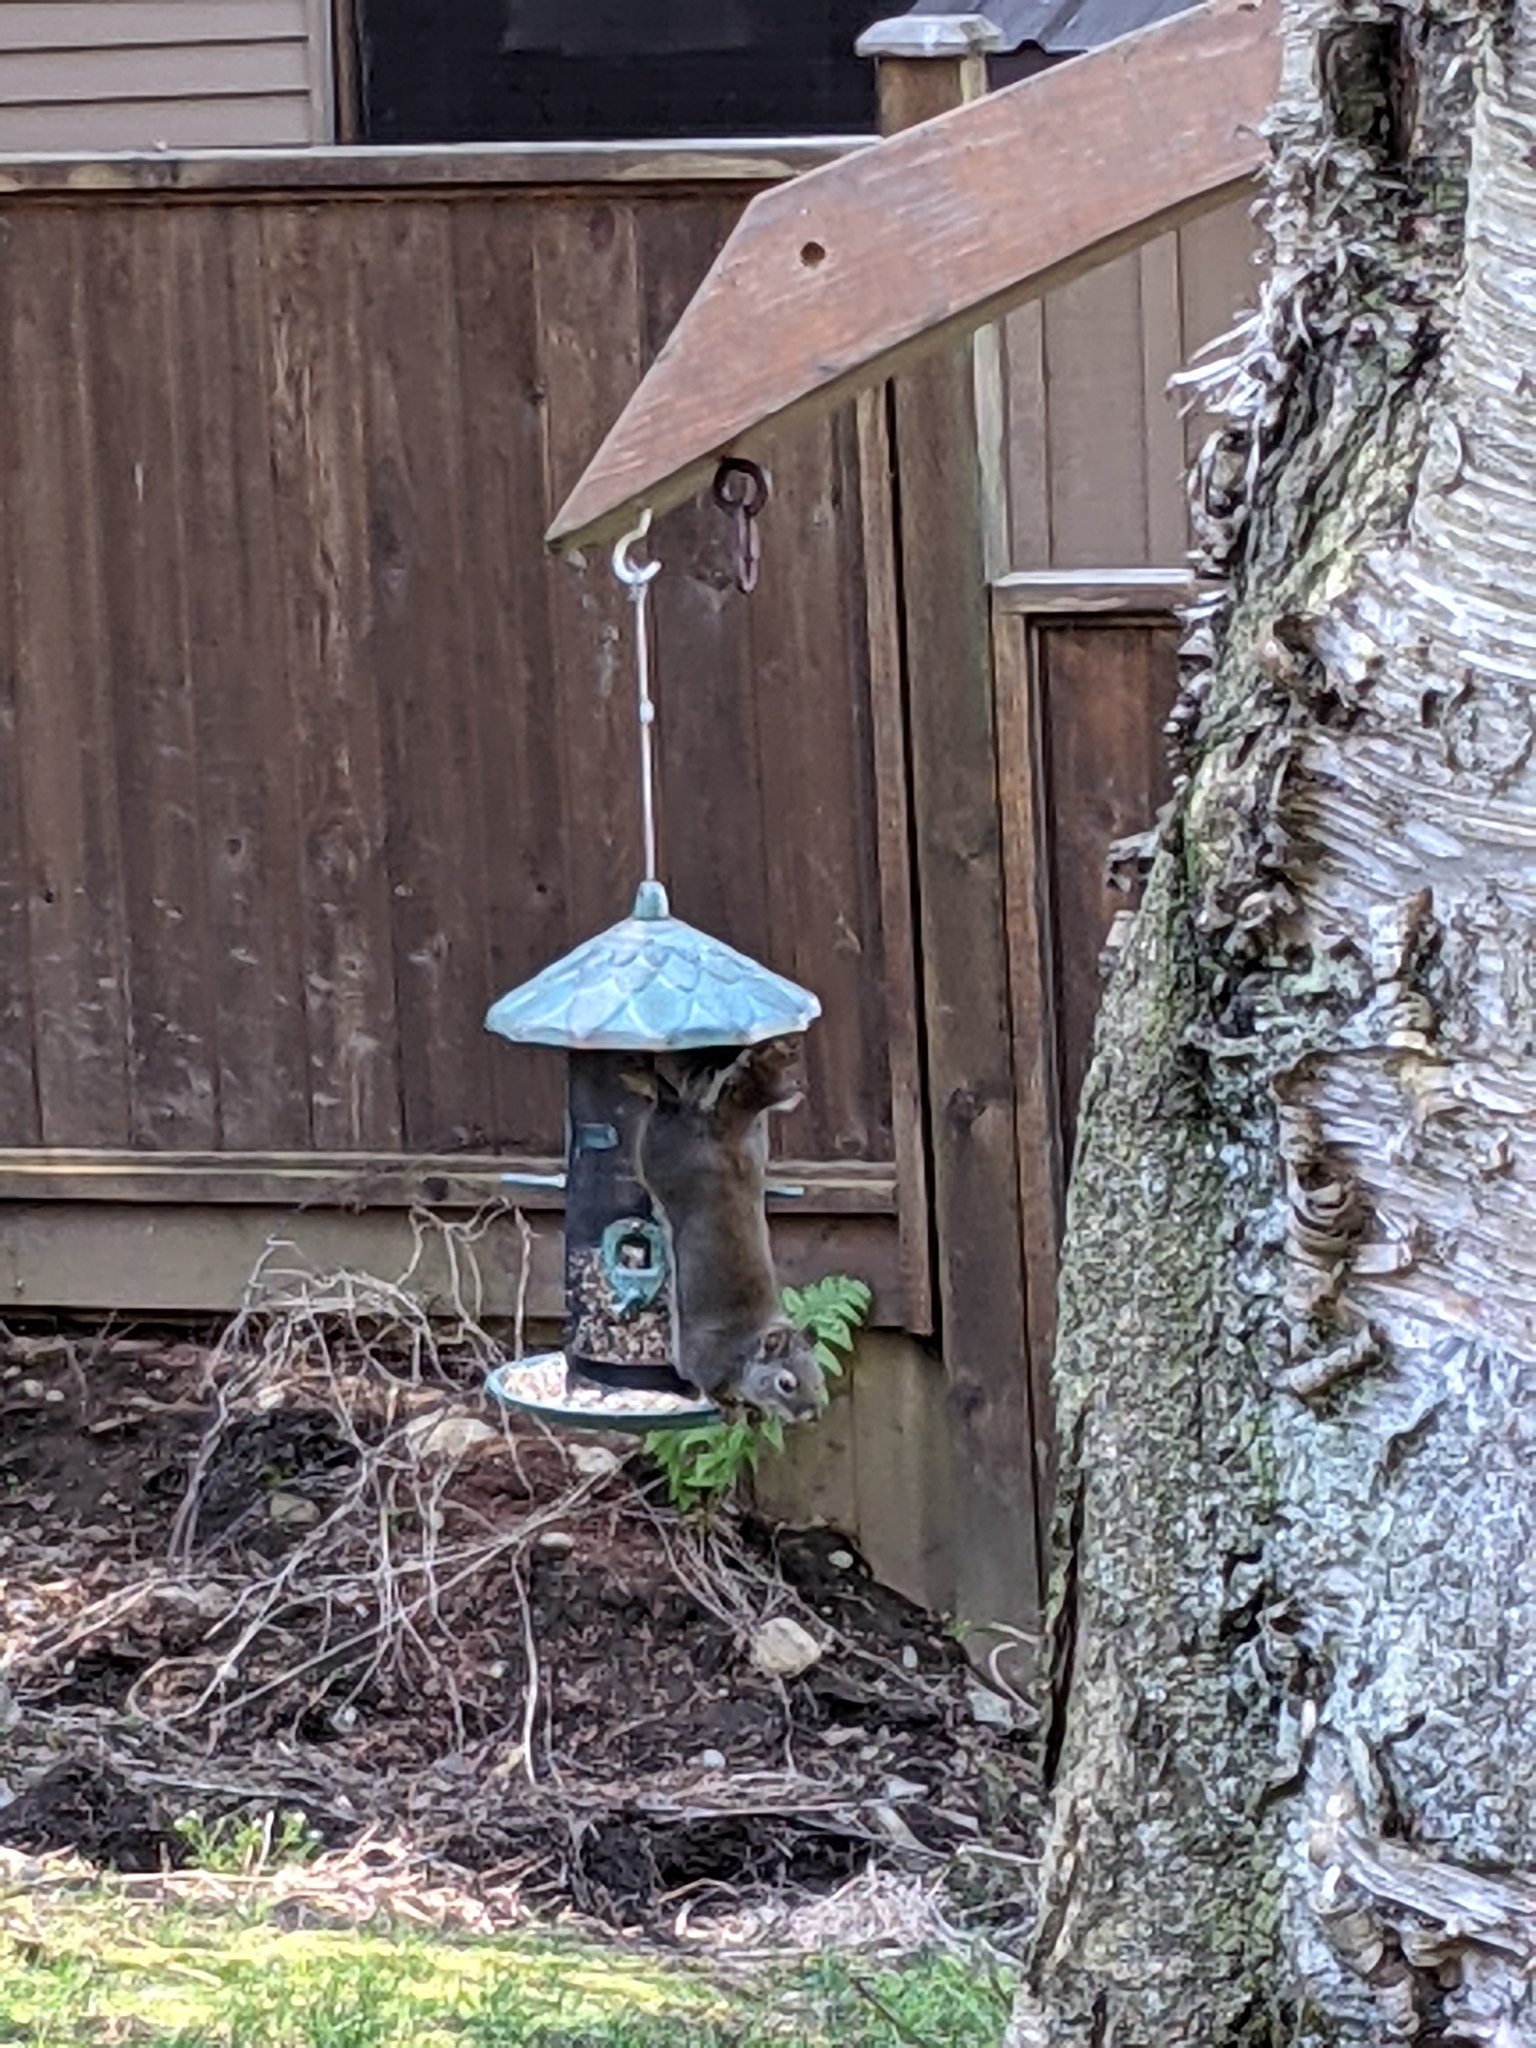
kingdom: Animalia
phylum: Chordata
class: Mammalia
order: Rodentia
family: Sciuridae
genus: Tamiasciurus
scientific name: Tamiasciurus douglasii
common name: Douglas's squirrel
